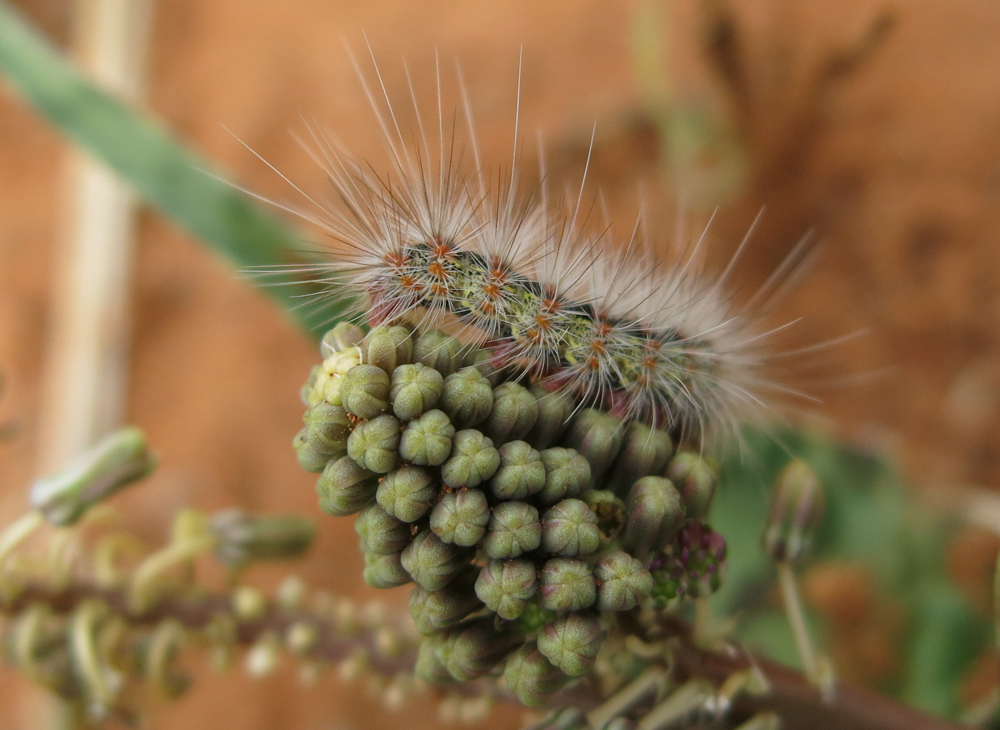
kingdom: Animalia
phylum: Arthropoda
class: Insecta
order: Lepidoptera
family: Erebidae
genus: Paralacydes
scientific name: Paralacydes arborifera
